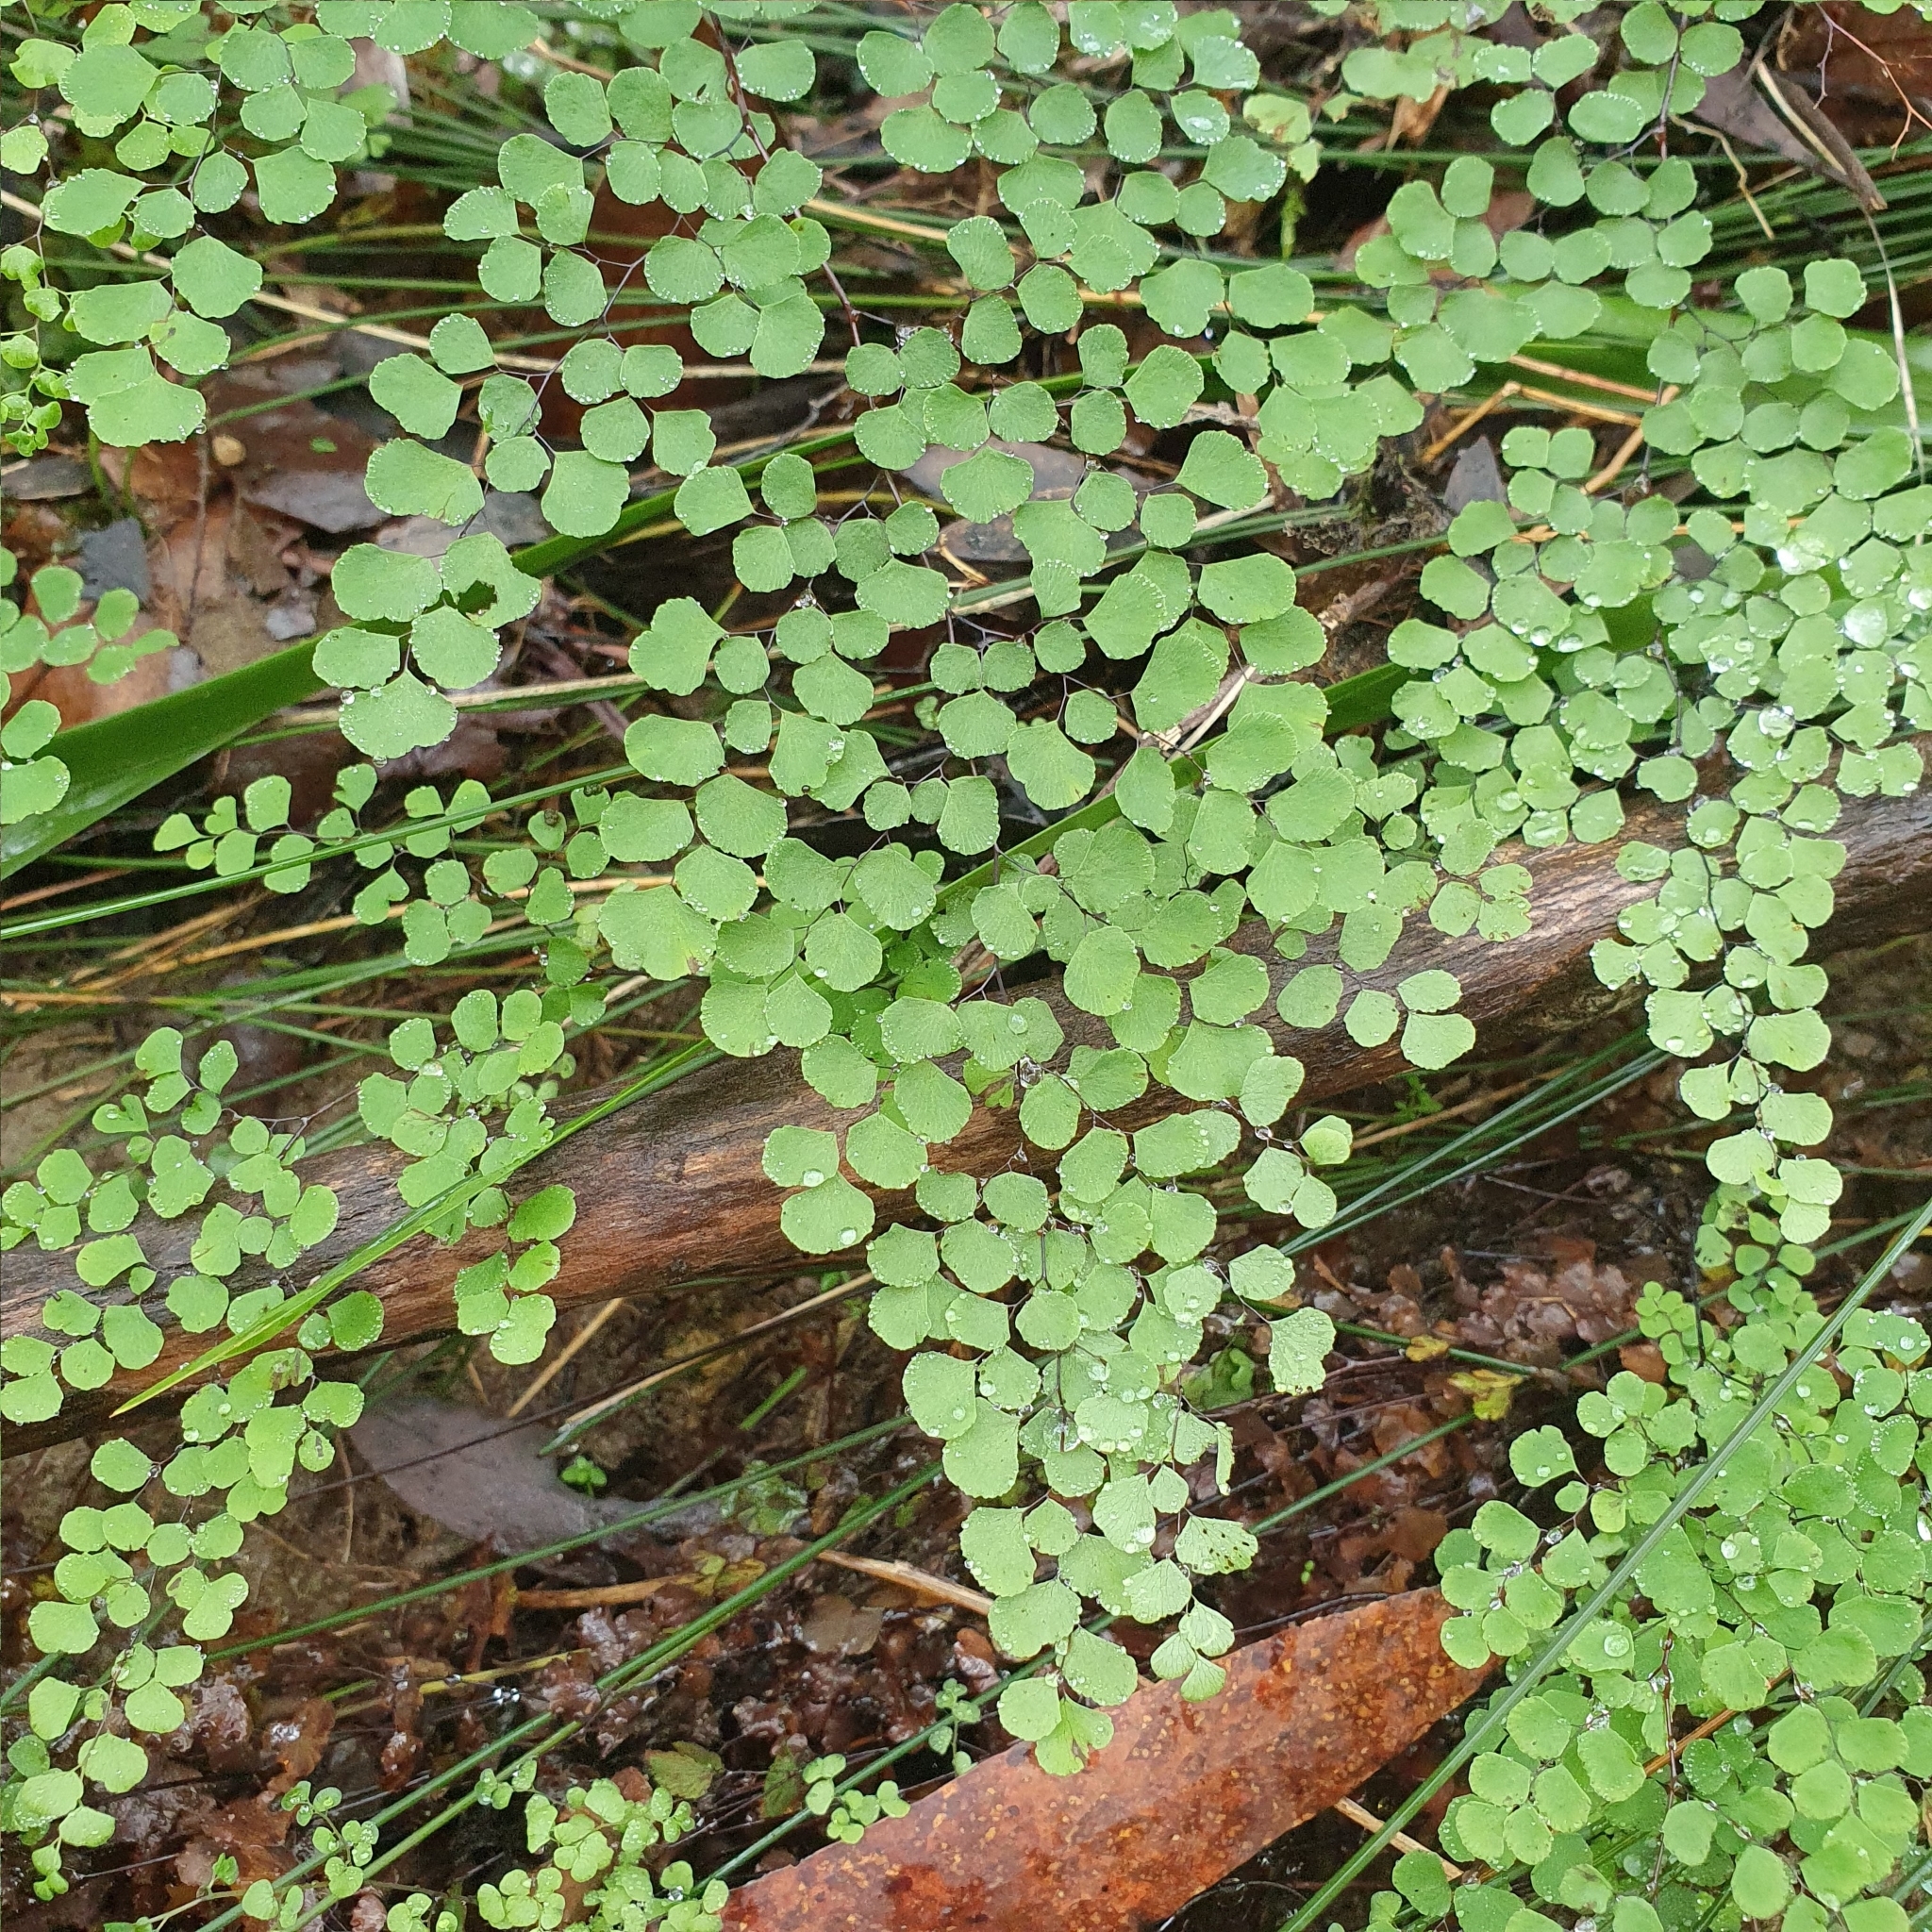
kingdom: Plantae
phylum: Tracheophyta
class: Polypodiopsida
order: Polypodiales
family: Pteridaceae
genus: Adiantum
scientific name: Adiantum aethiopicum
